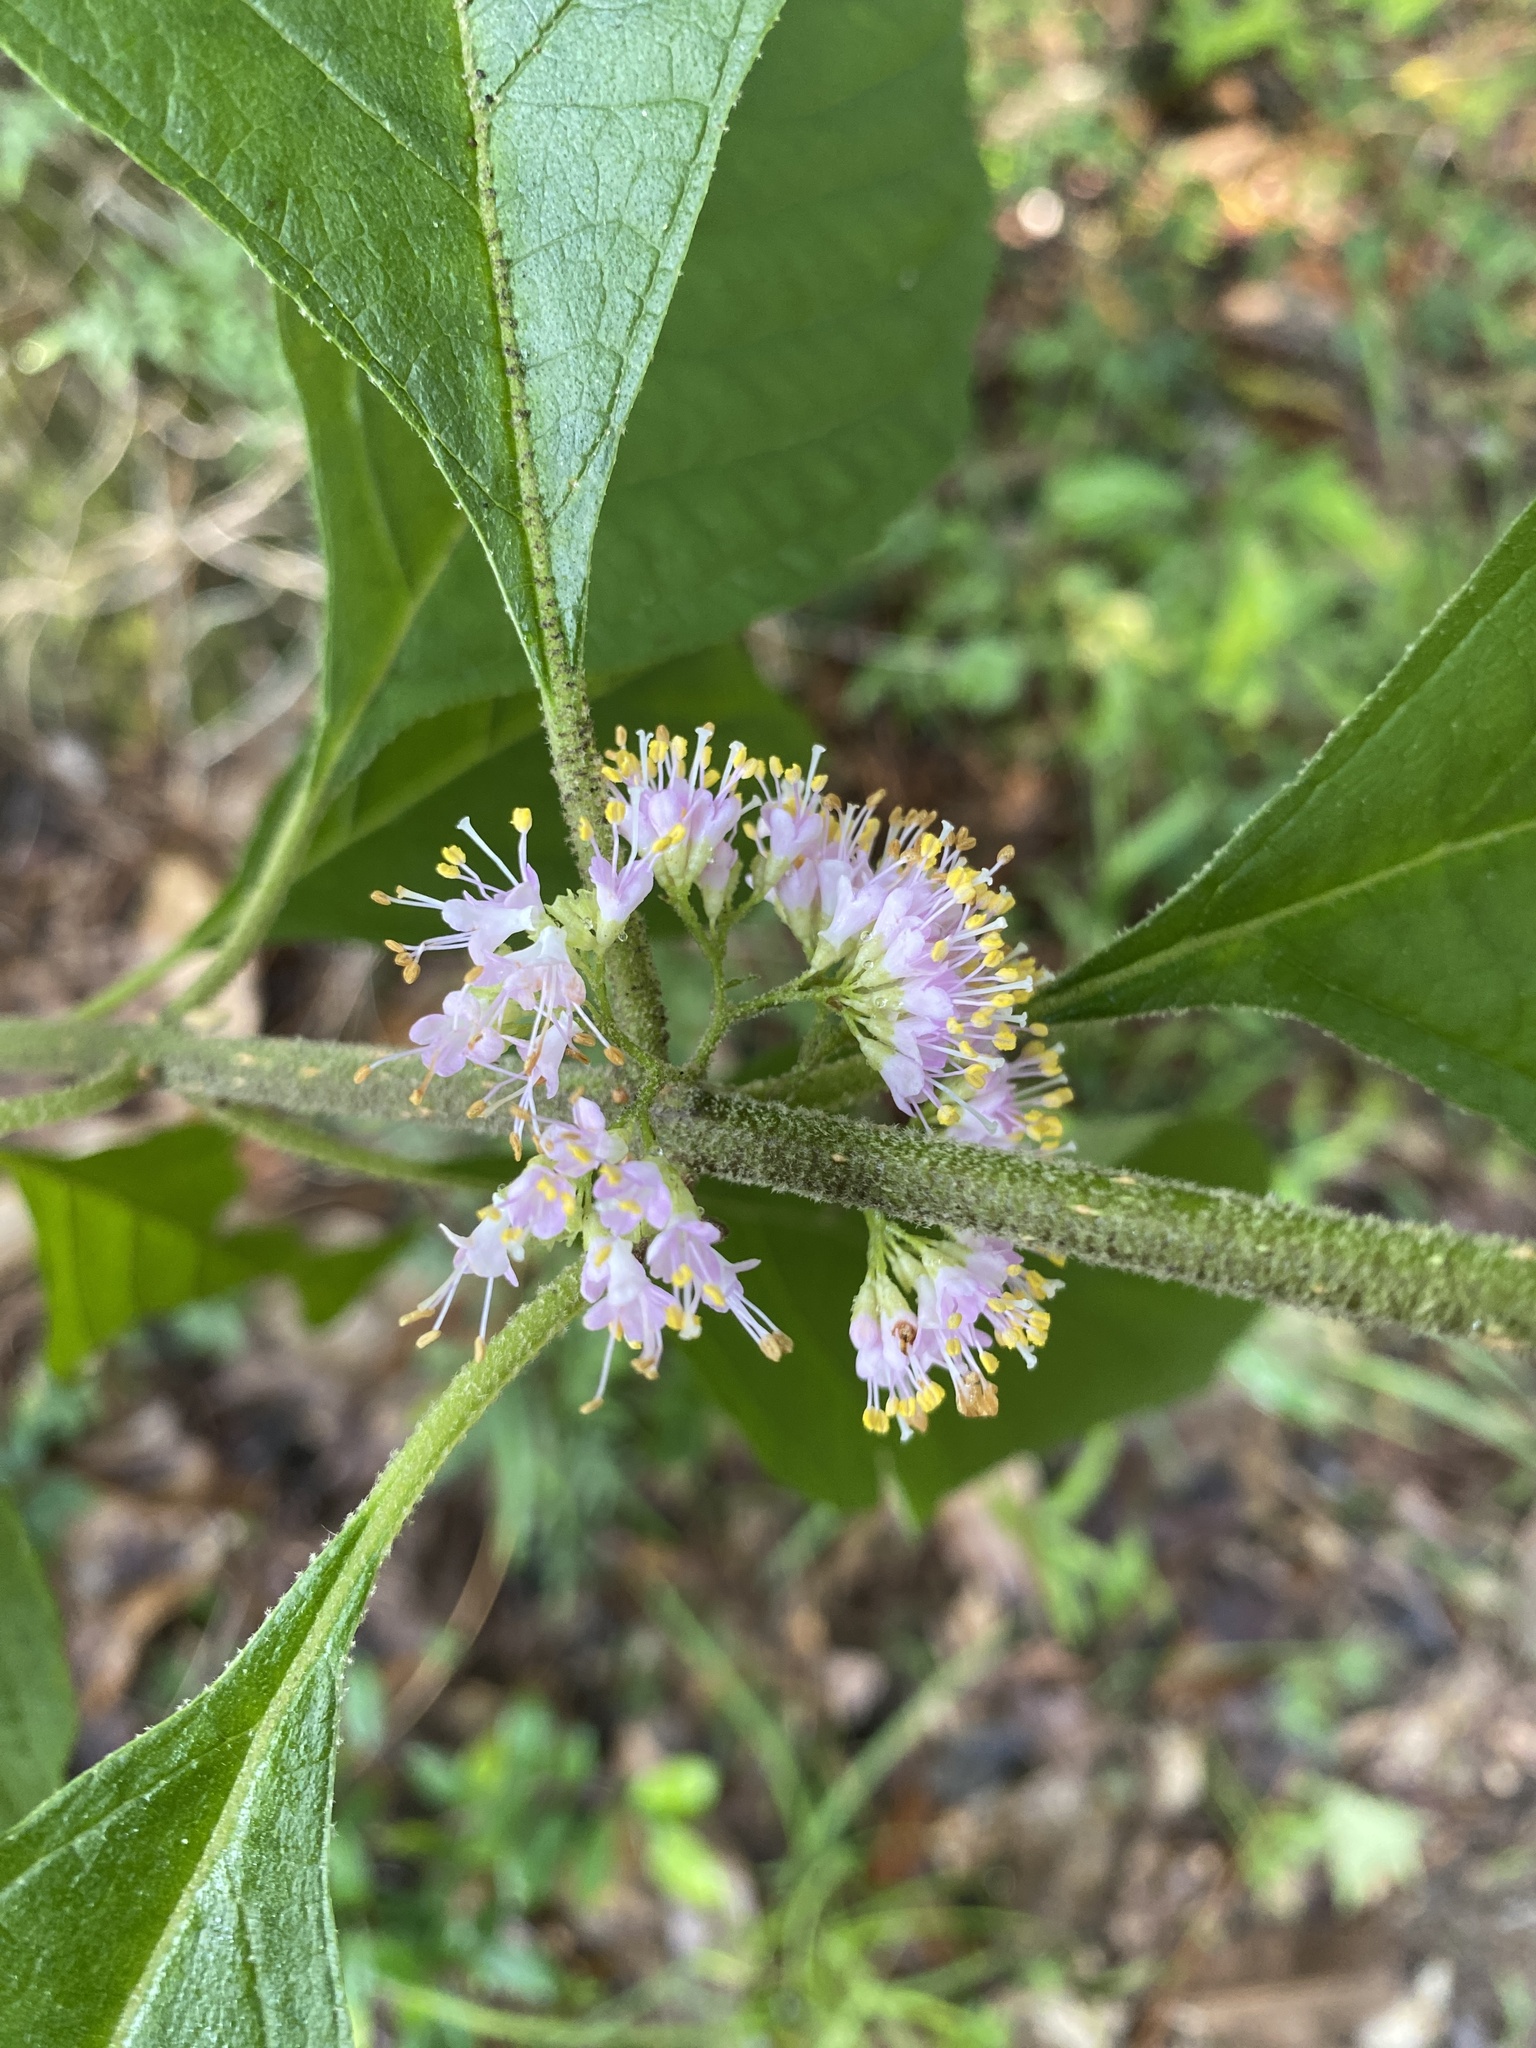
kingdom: Plantae
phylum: Tracheophyta
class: Magnoliopsida
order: Lamiales
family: Lamiaceae
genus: Callicarpa
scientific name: Callicarpa americana
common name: American beautyberry
